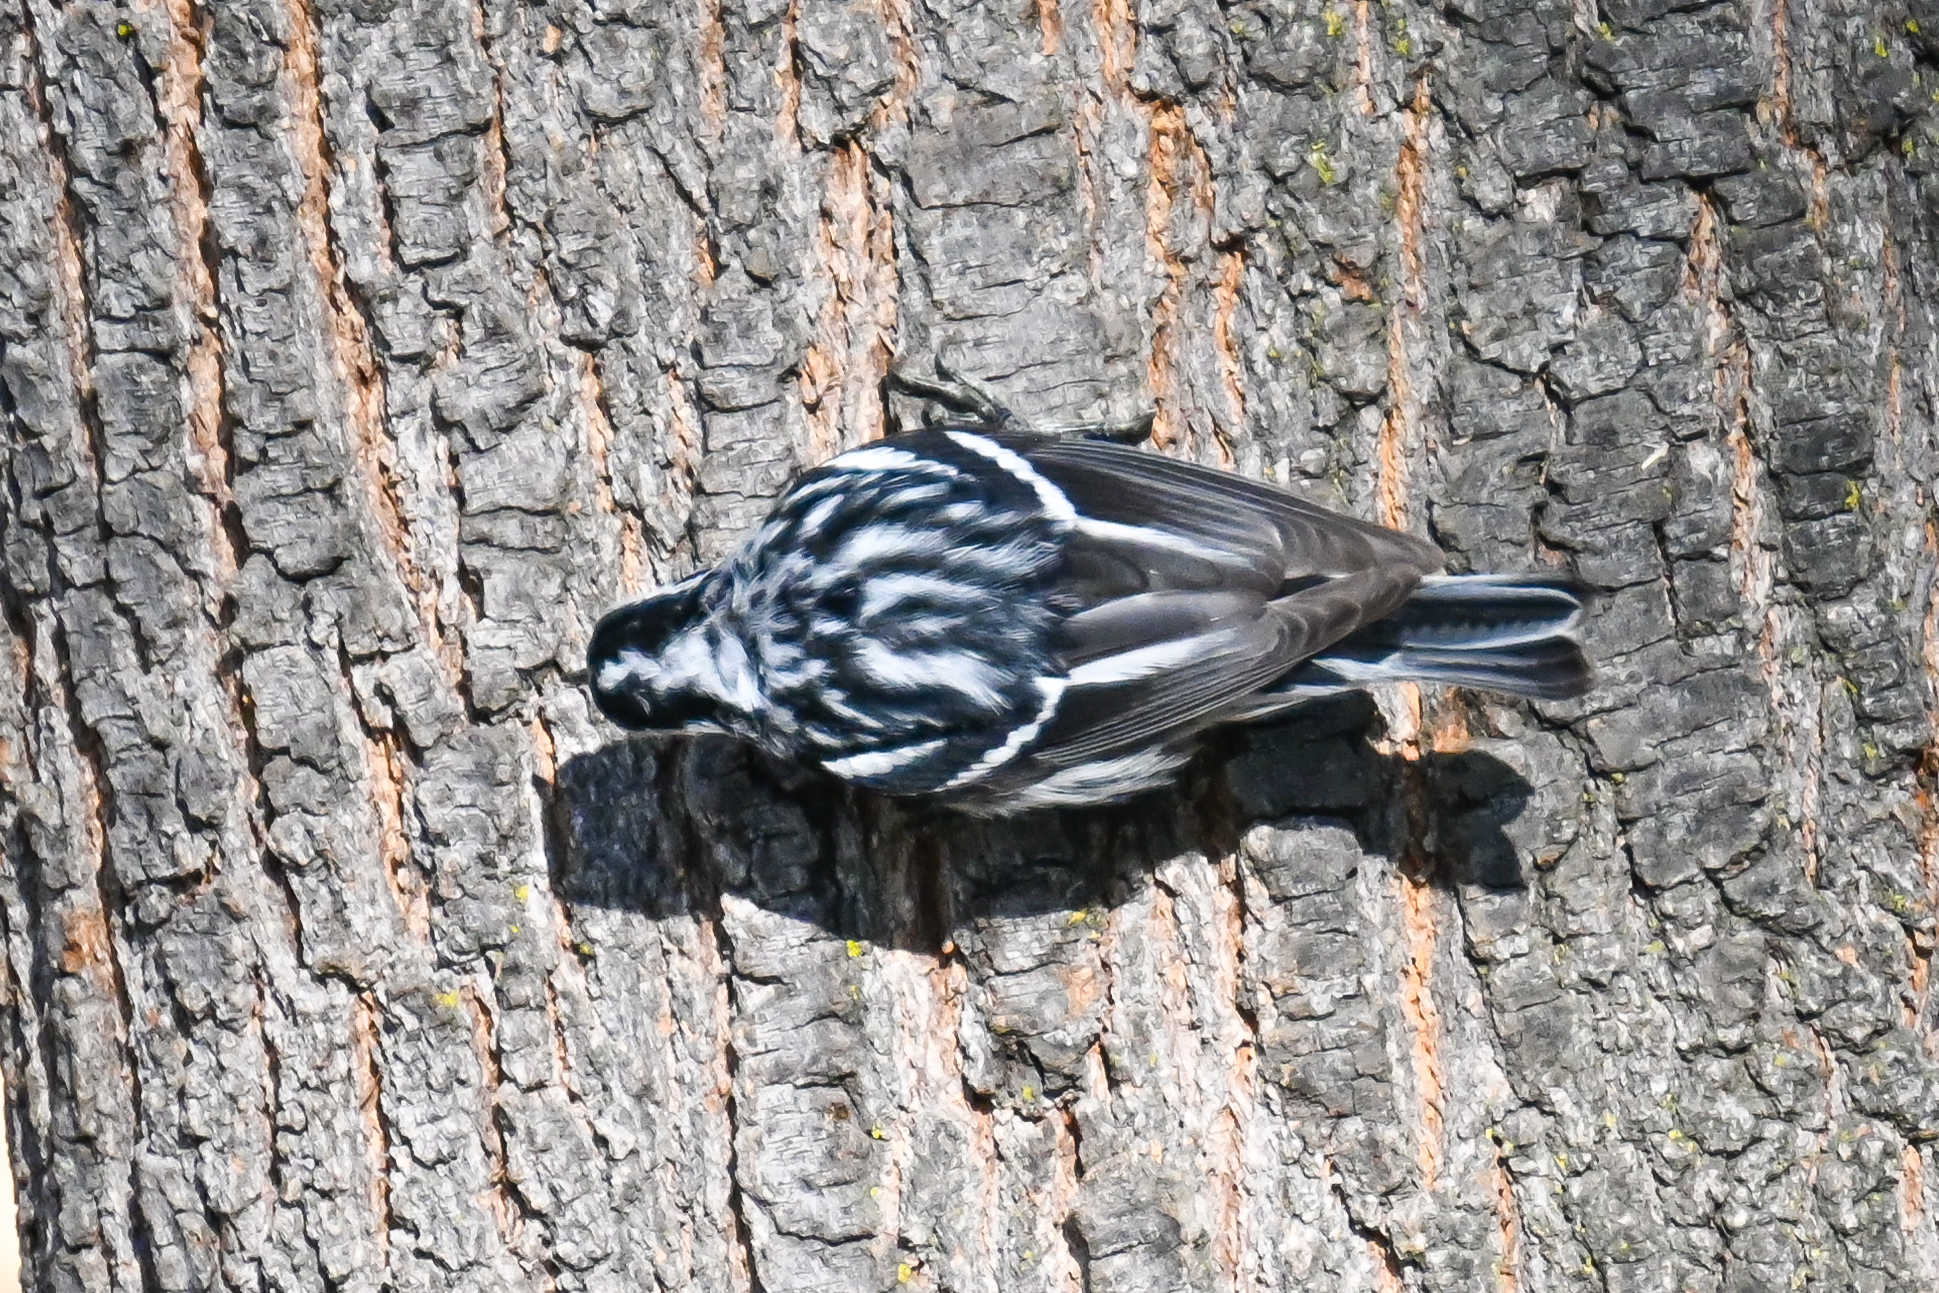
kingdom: Animalia
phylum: Chordata
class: Aves
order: Passeriformes
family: Parulidae
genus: Mniotilta
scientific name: Mniotilta varia
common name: Black-and-white warbler
